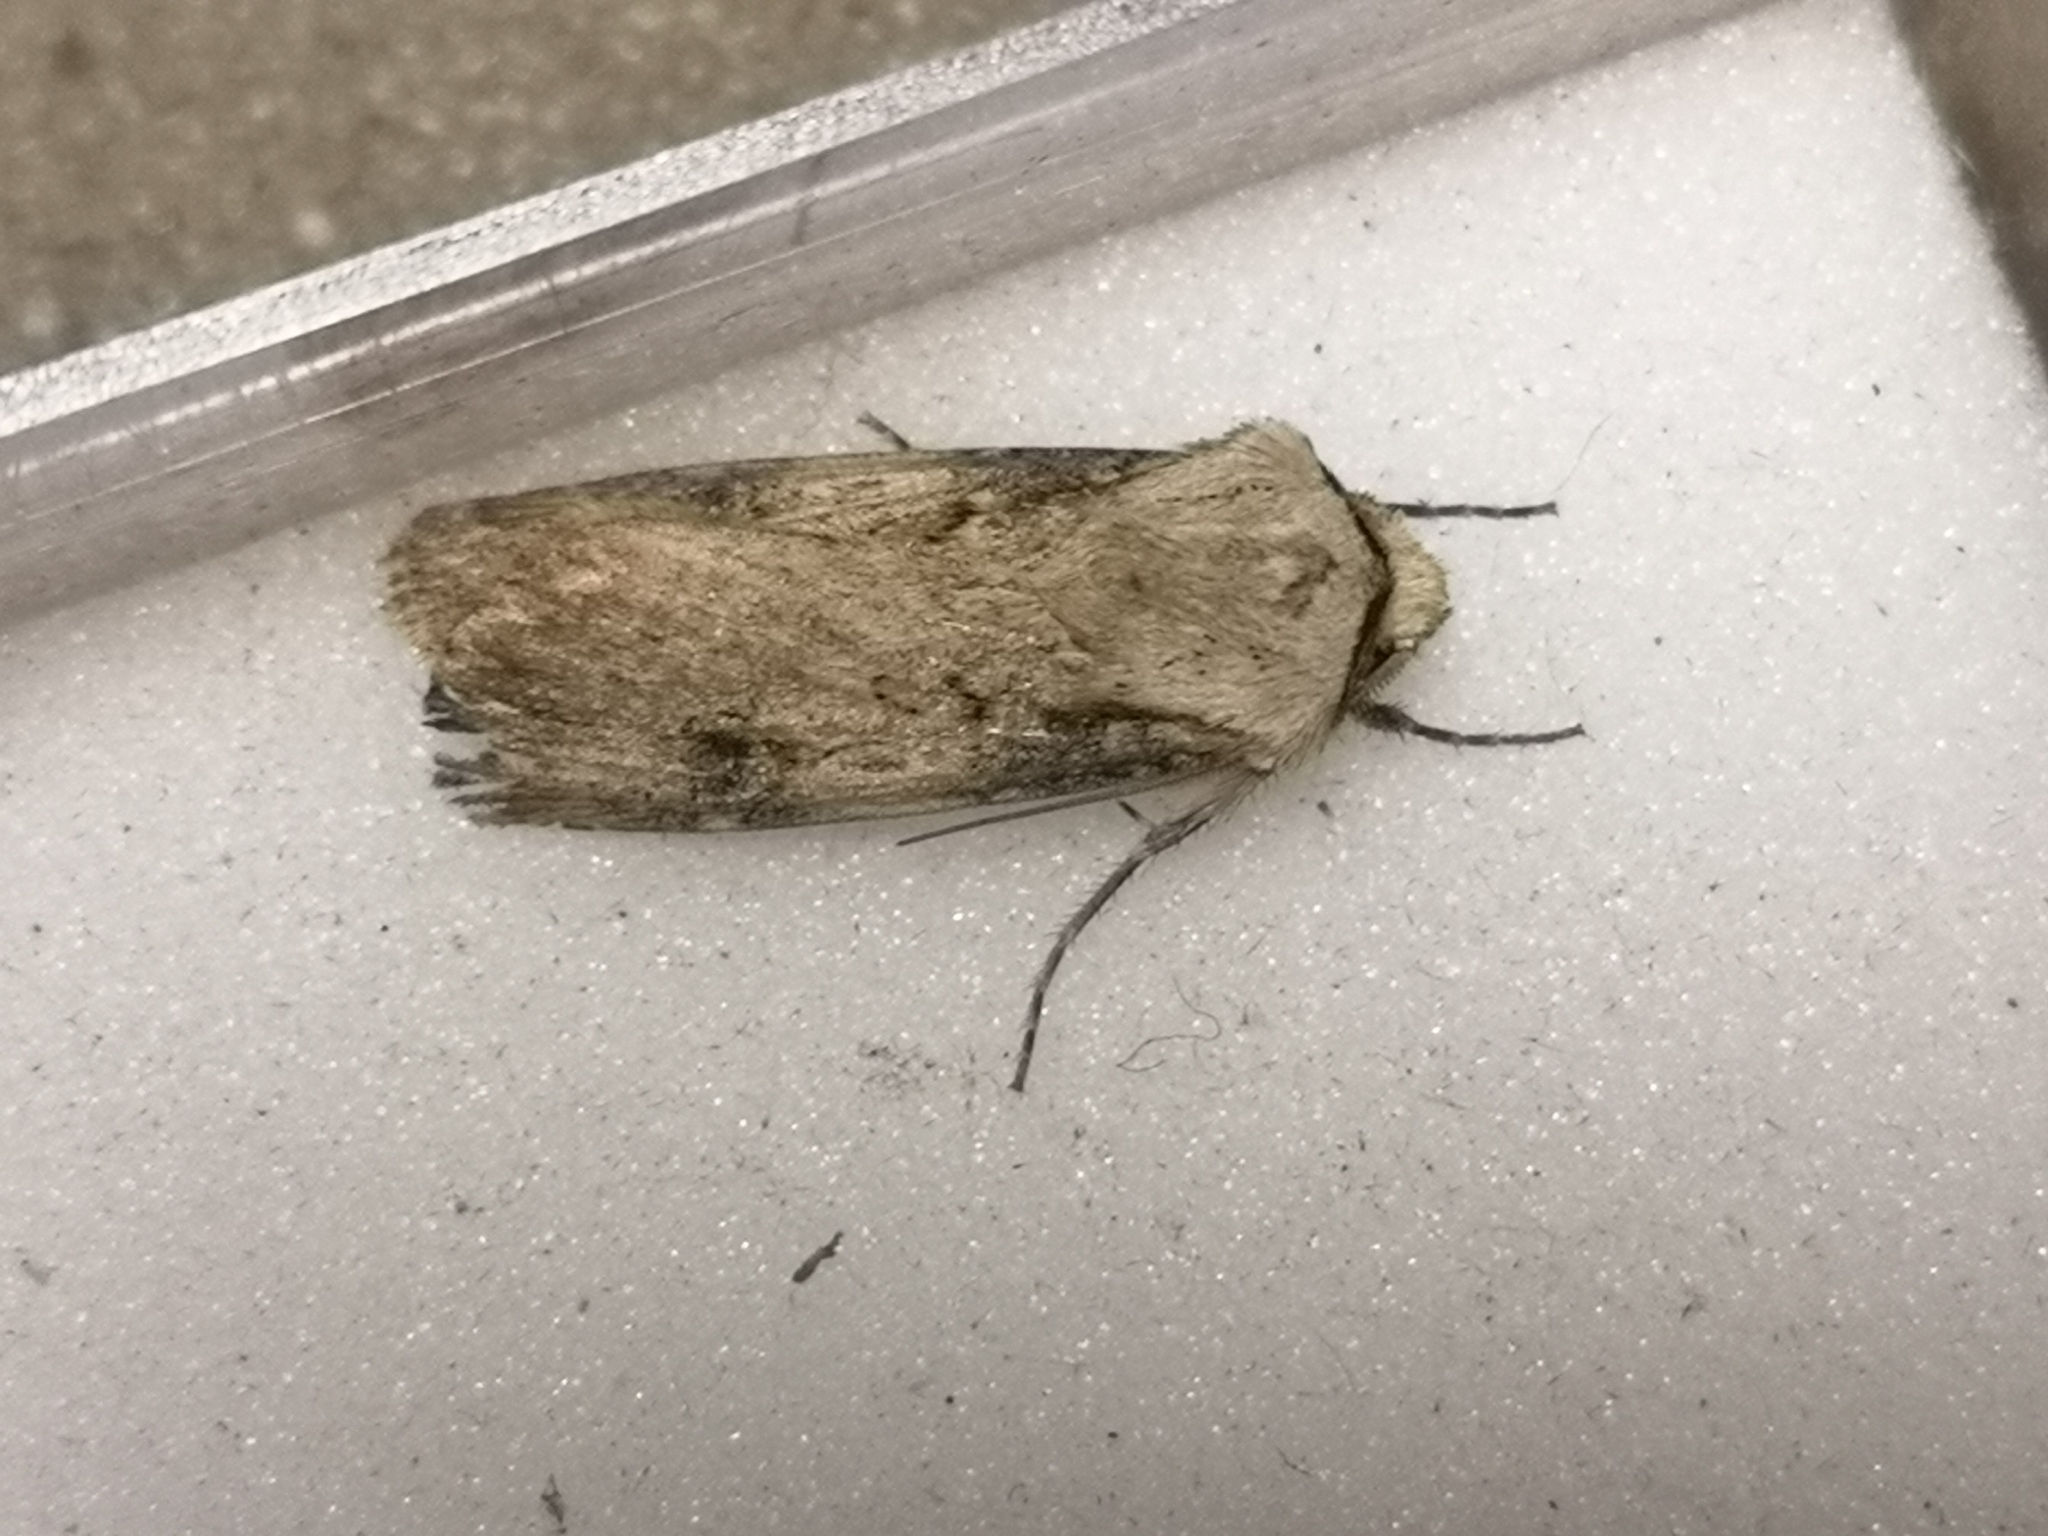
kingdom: Animalia
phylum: Arthropoda
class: Insecta
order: Lepidoptera
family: Noctuidae
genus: Agrotis
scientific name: Agrotis puta
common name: Shuttle-shaped dart
